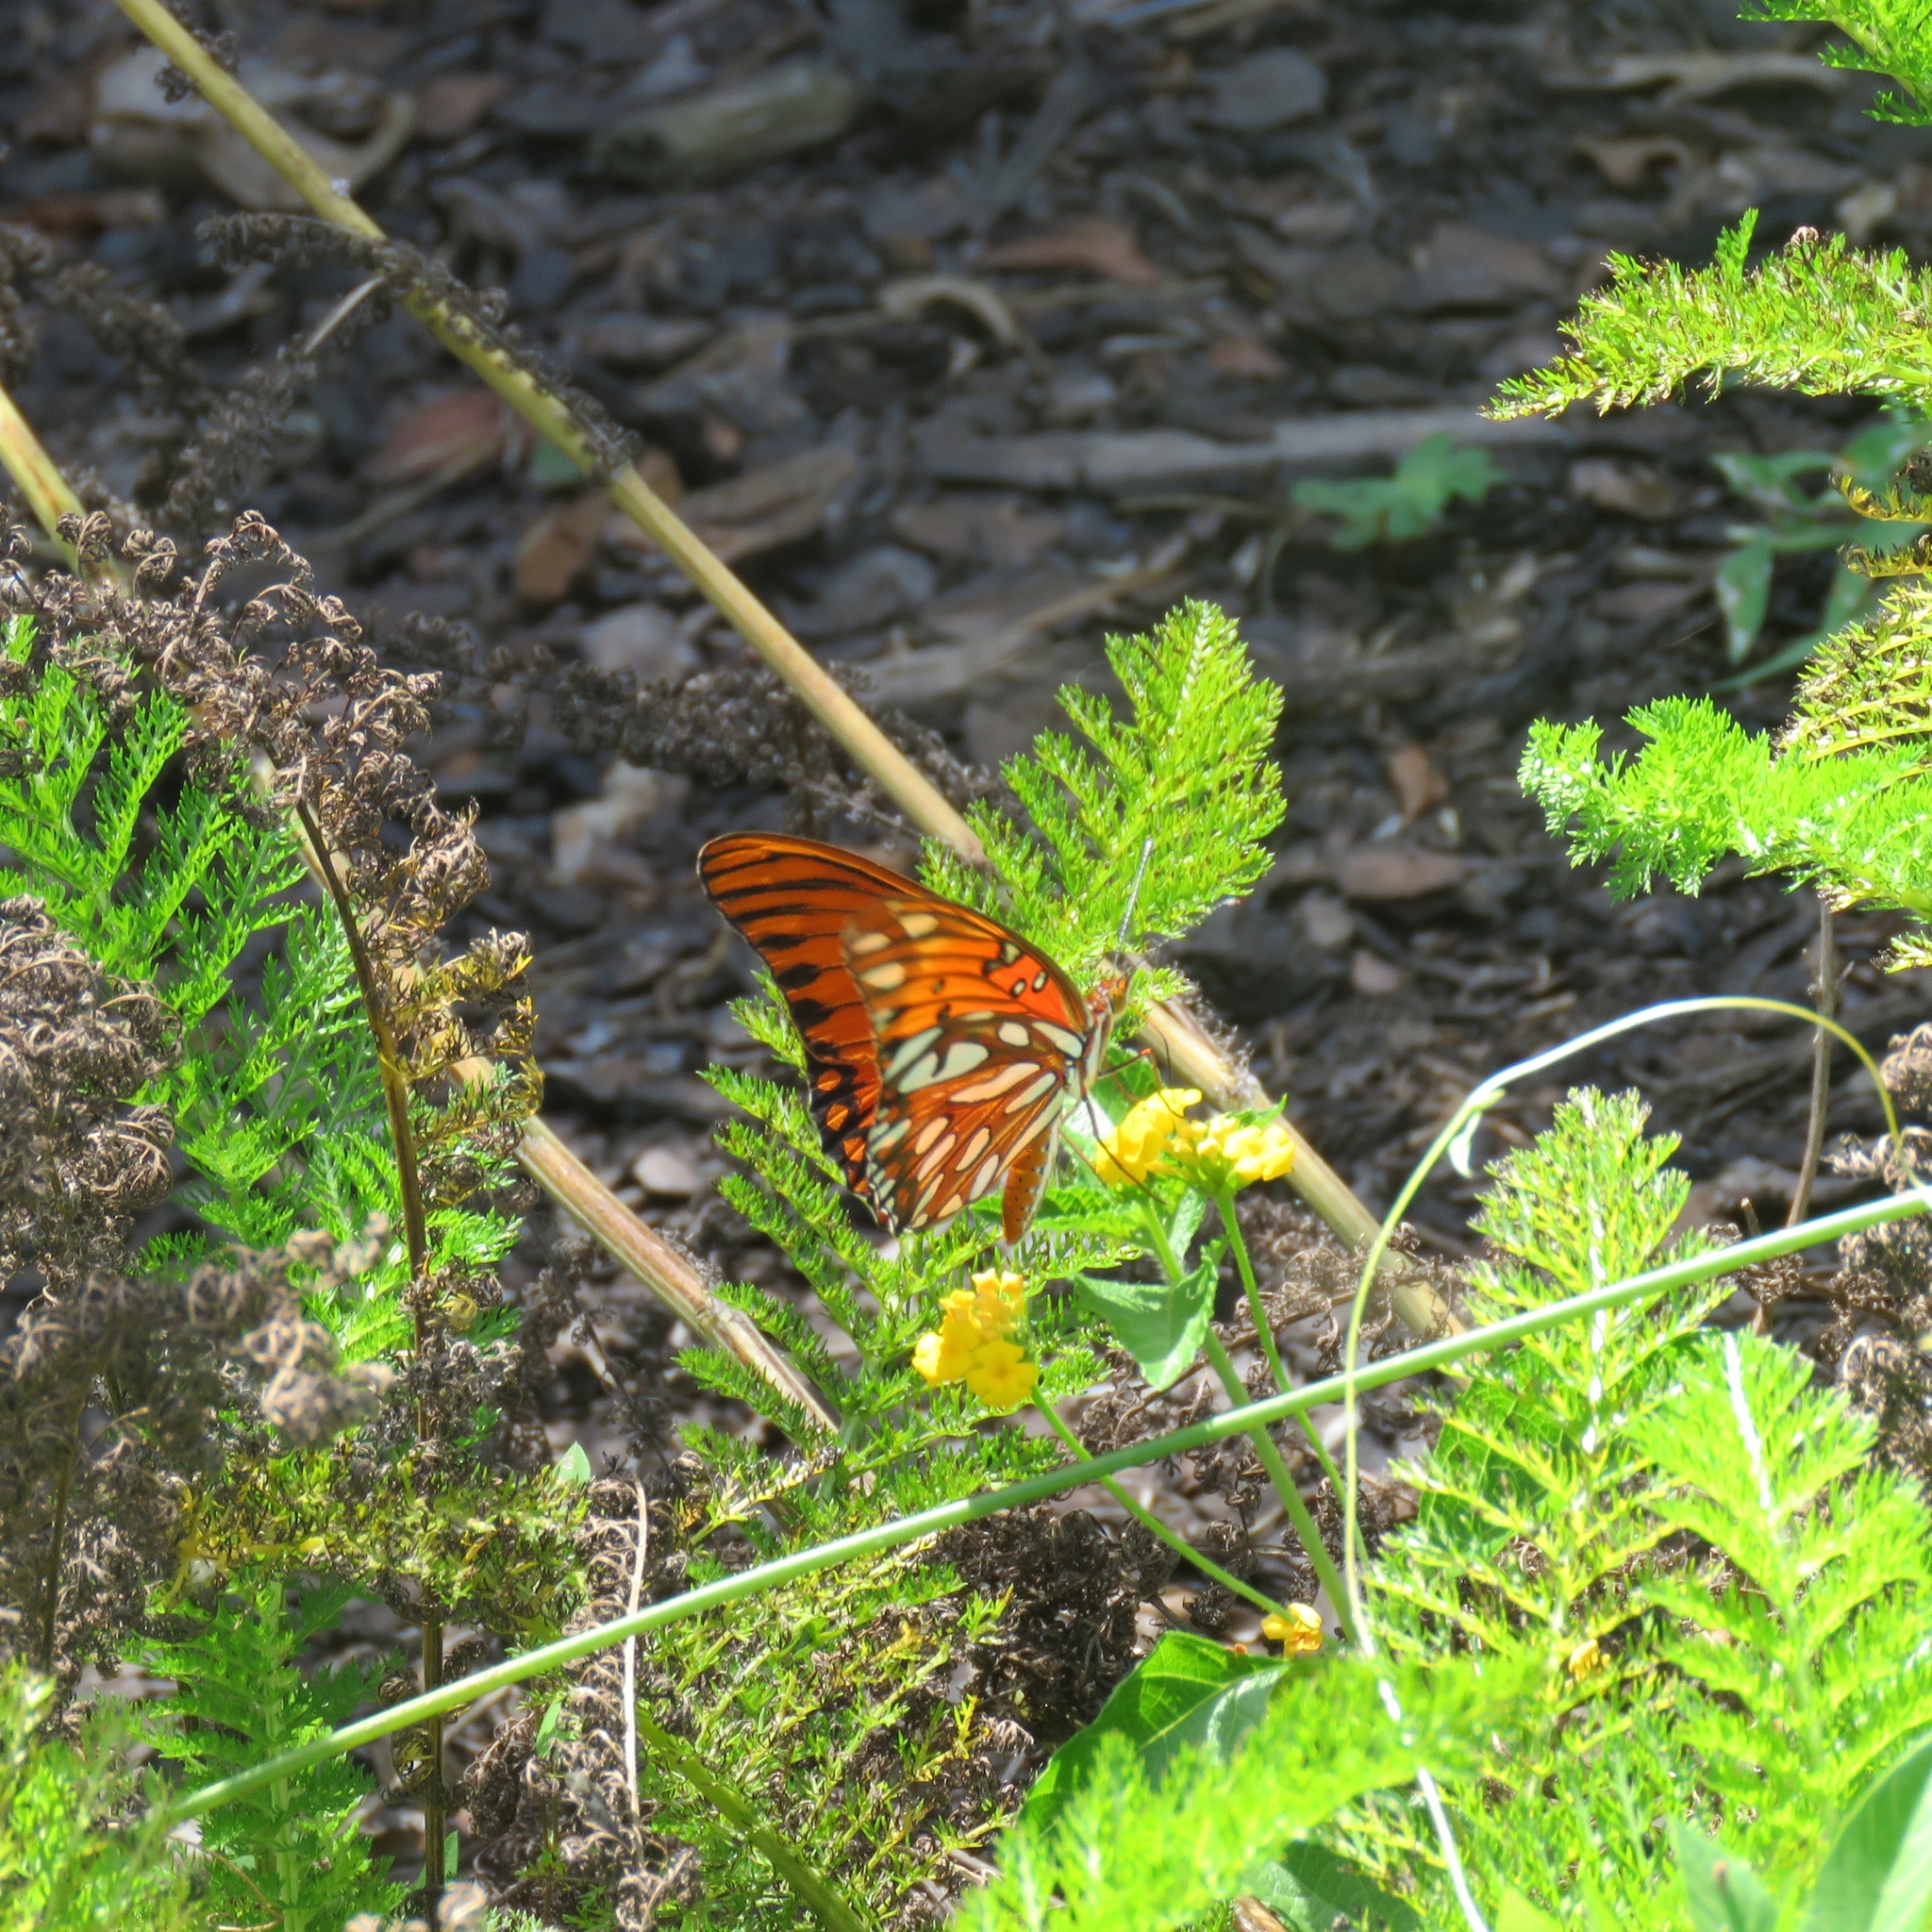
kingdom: Animalia
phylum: Arthropoda
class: Insecta
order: Lepidoptera
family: Nymphalidae
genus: Dione
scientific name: Dione vanillae
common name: Gulf fritillary
